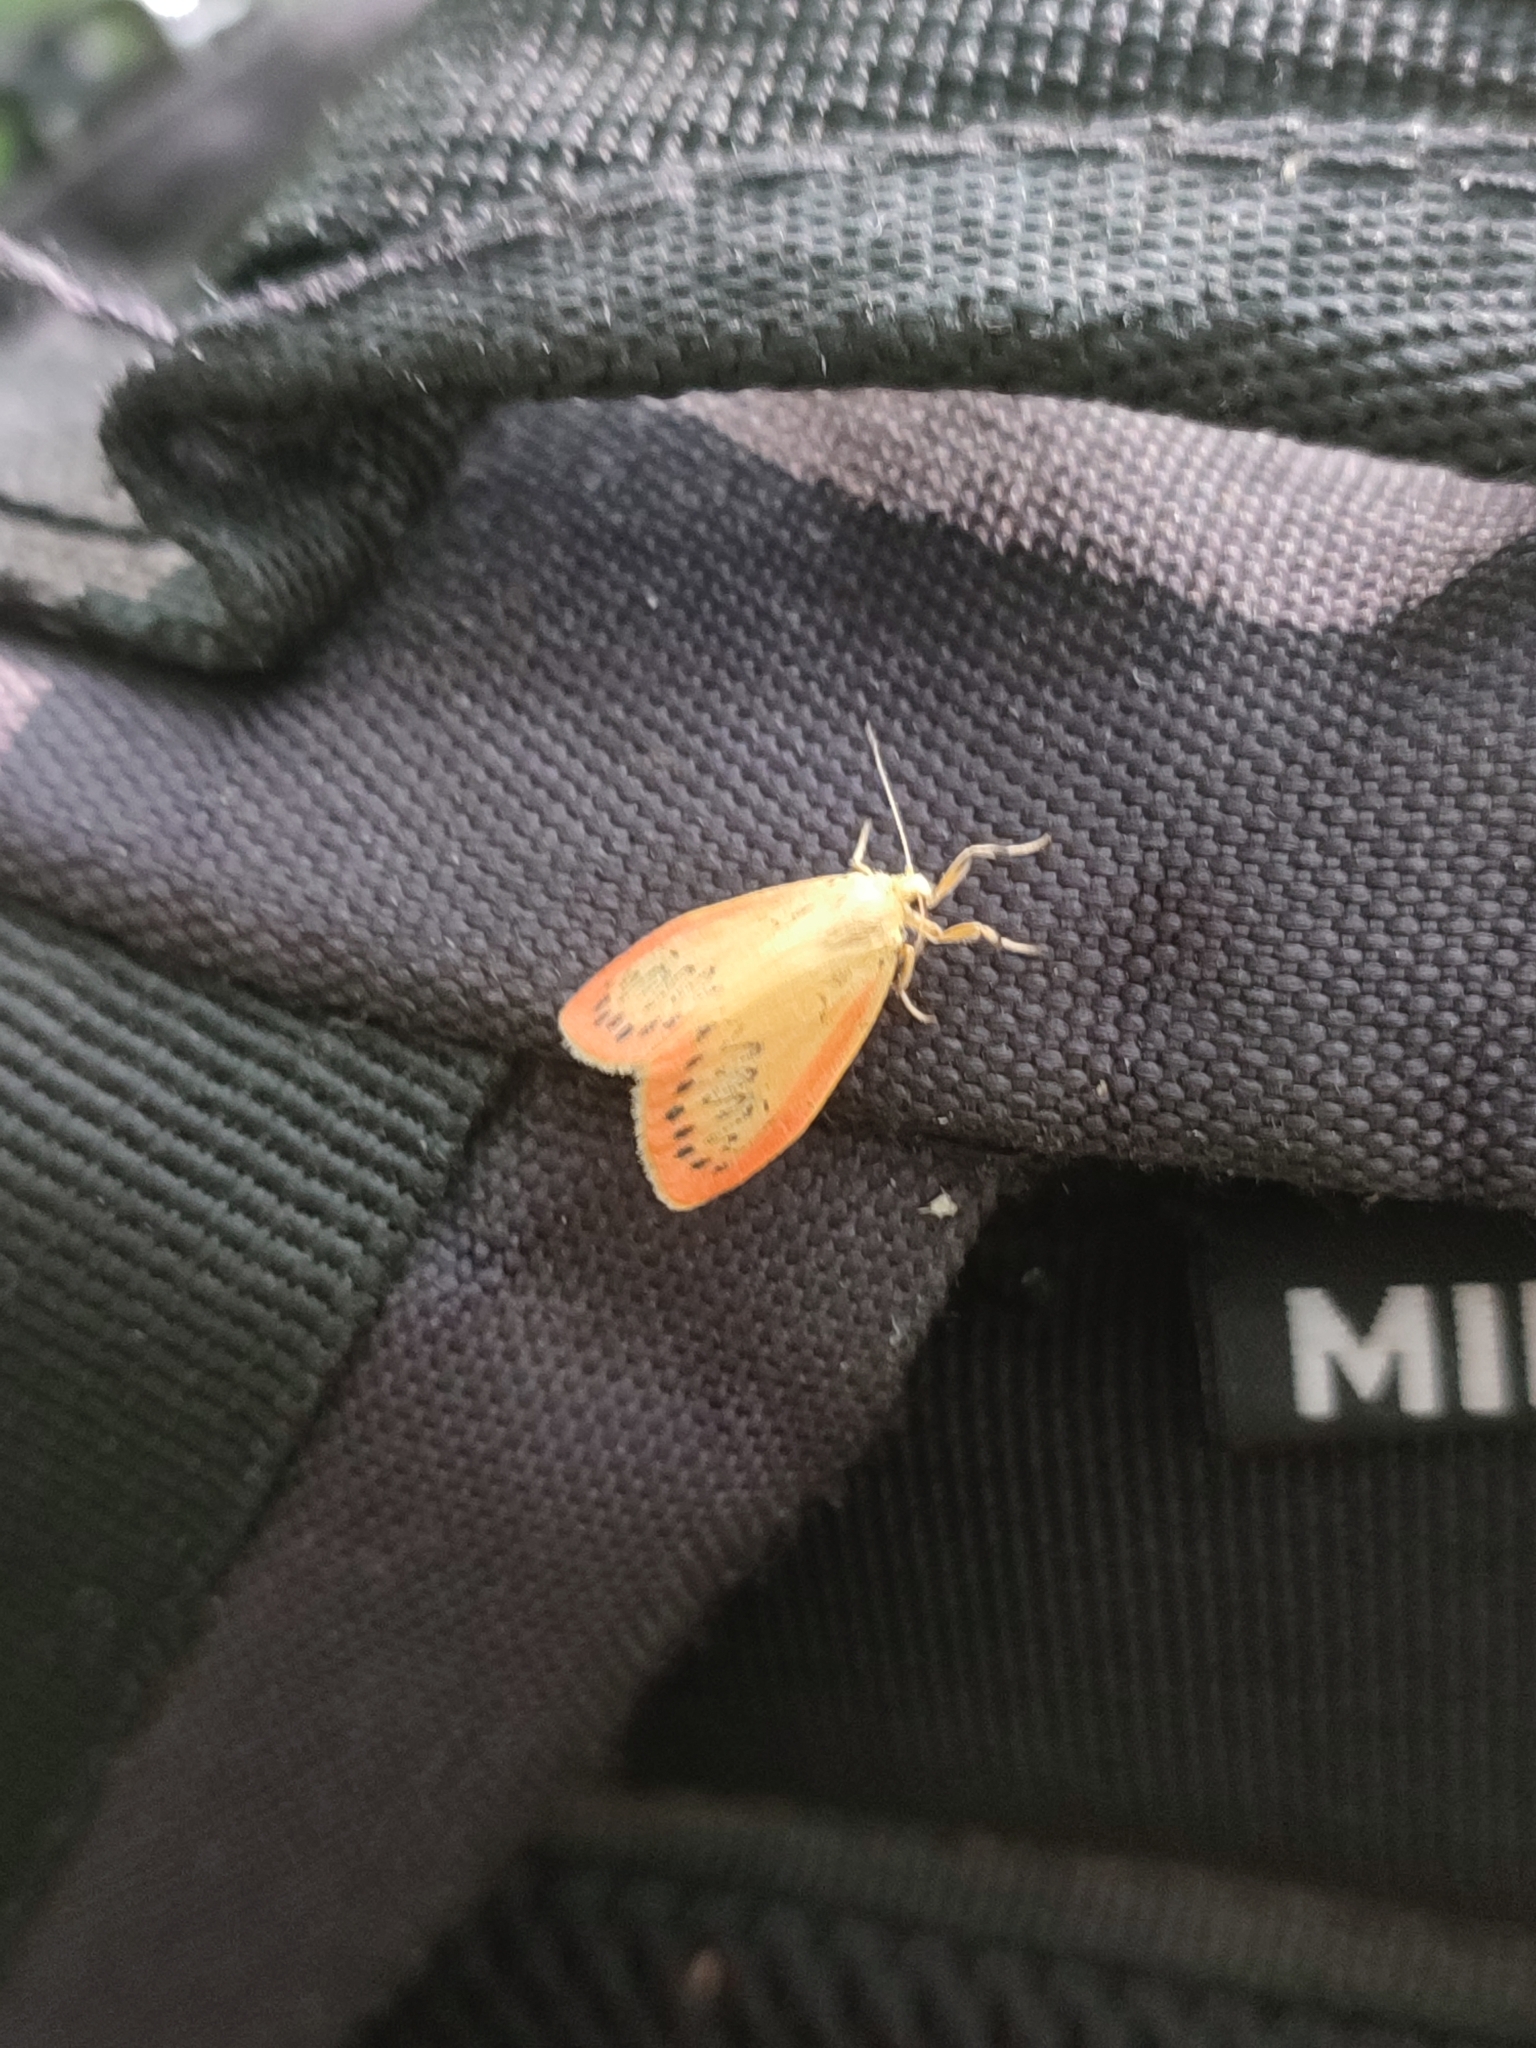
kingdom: Animalia
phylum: Arthropoda
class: Insecta
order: Lepidoptera
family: Erebidae
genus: Miltochrista
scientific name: Miltochrista miniata
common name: Rosy footman
